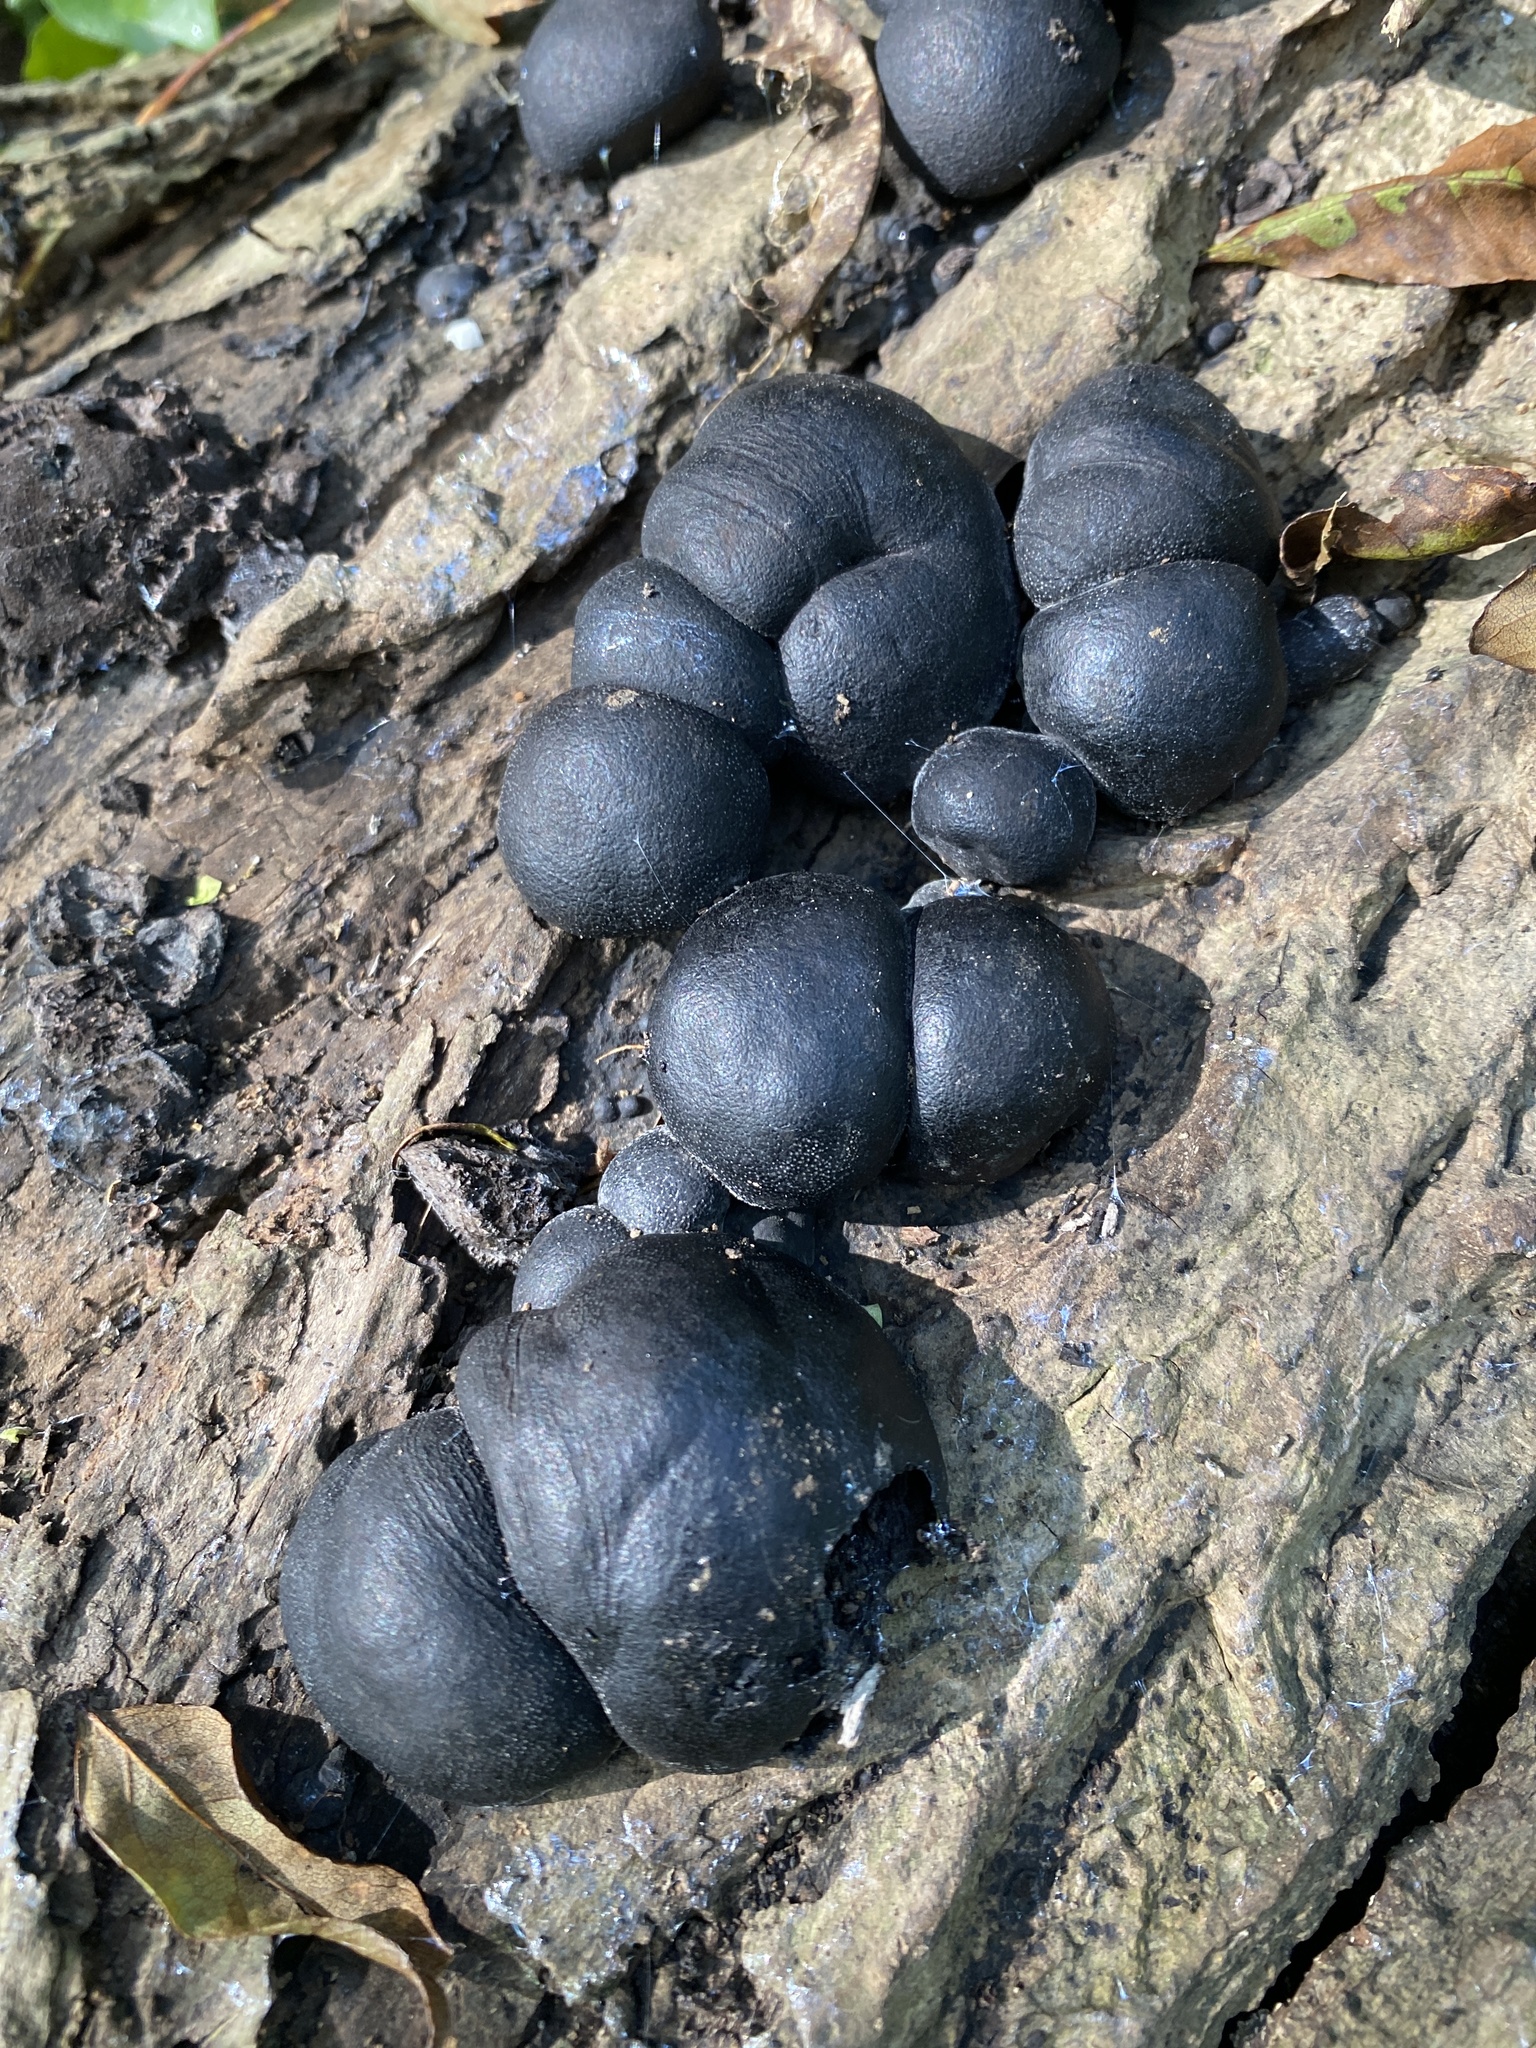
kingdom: Fungi
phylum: Ascomycota
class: Sordariomycetes
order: Xylariales
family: Hypoxylaceae
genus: Daldinia
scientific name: Daldinia concentrica
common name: Cramp balls
